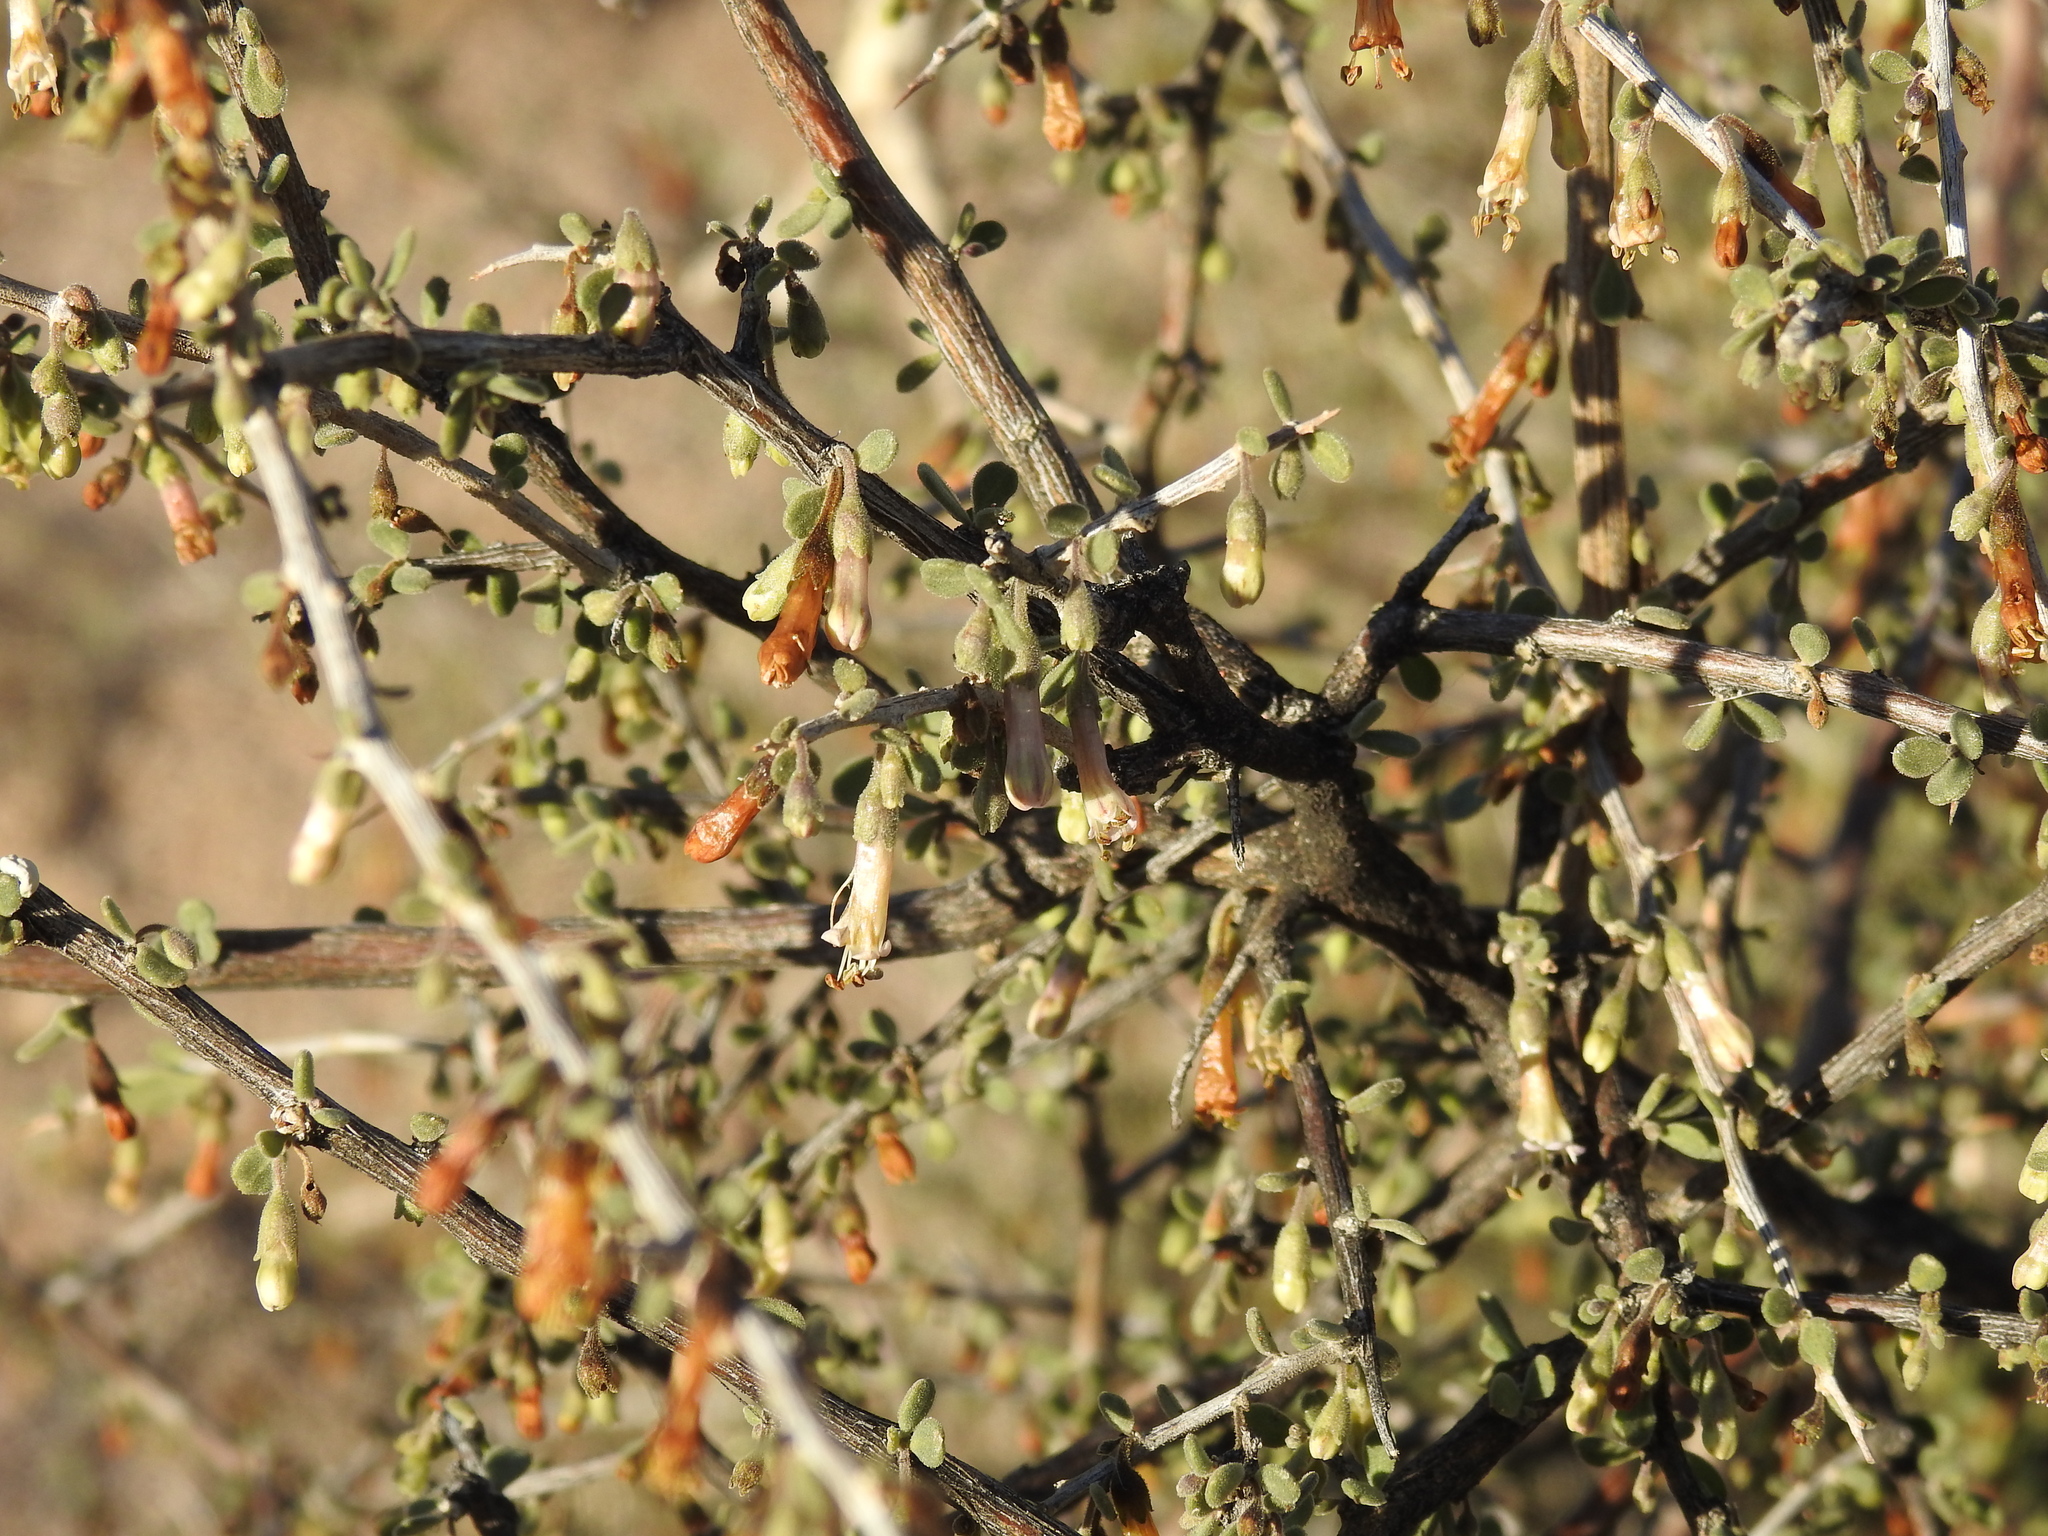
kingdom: Plantae
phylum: Tracheophyta
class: Magnoliopsida
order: Solanales
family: Solanaceae
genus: Lycium
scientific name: Lycium exsertum
